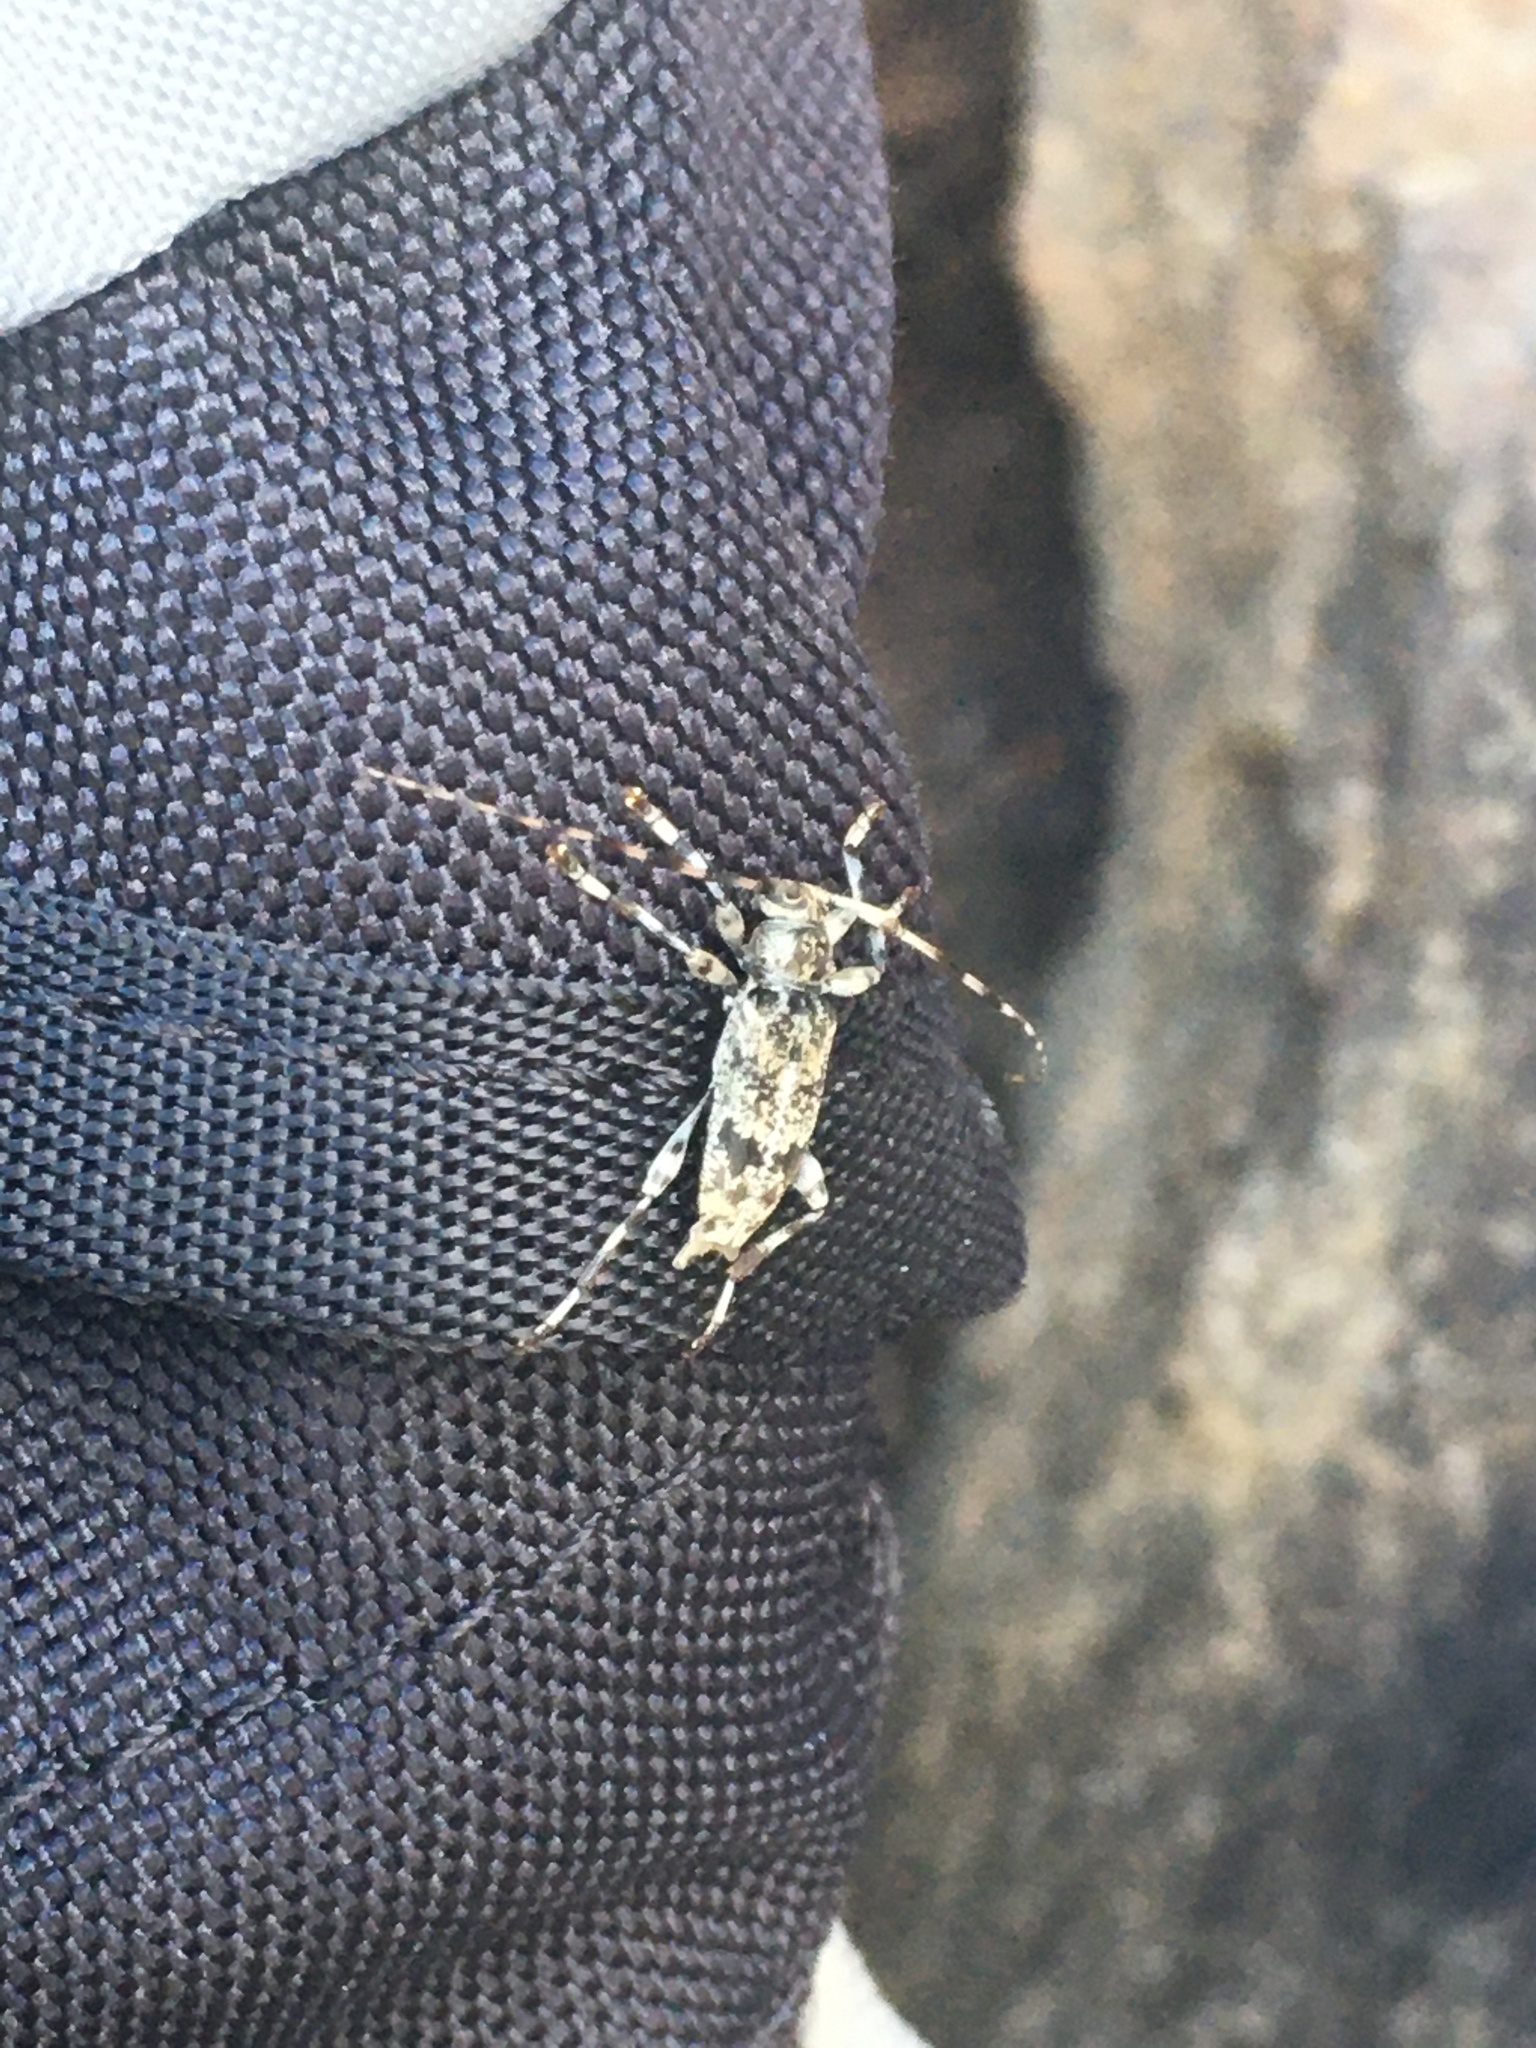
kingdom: Animalia
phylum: Arthropoda
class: Insecta
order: Coleoptera
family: Cerambycidae
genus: Graphisurus
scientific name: Graphisurus fasciatus
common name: Banded graphisurus
